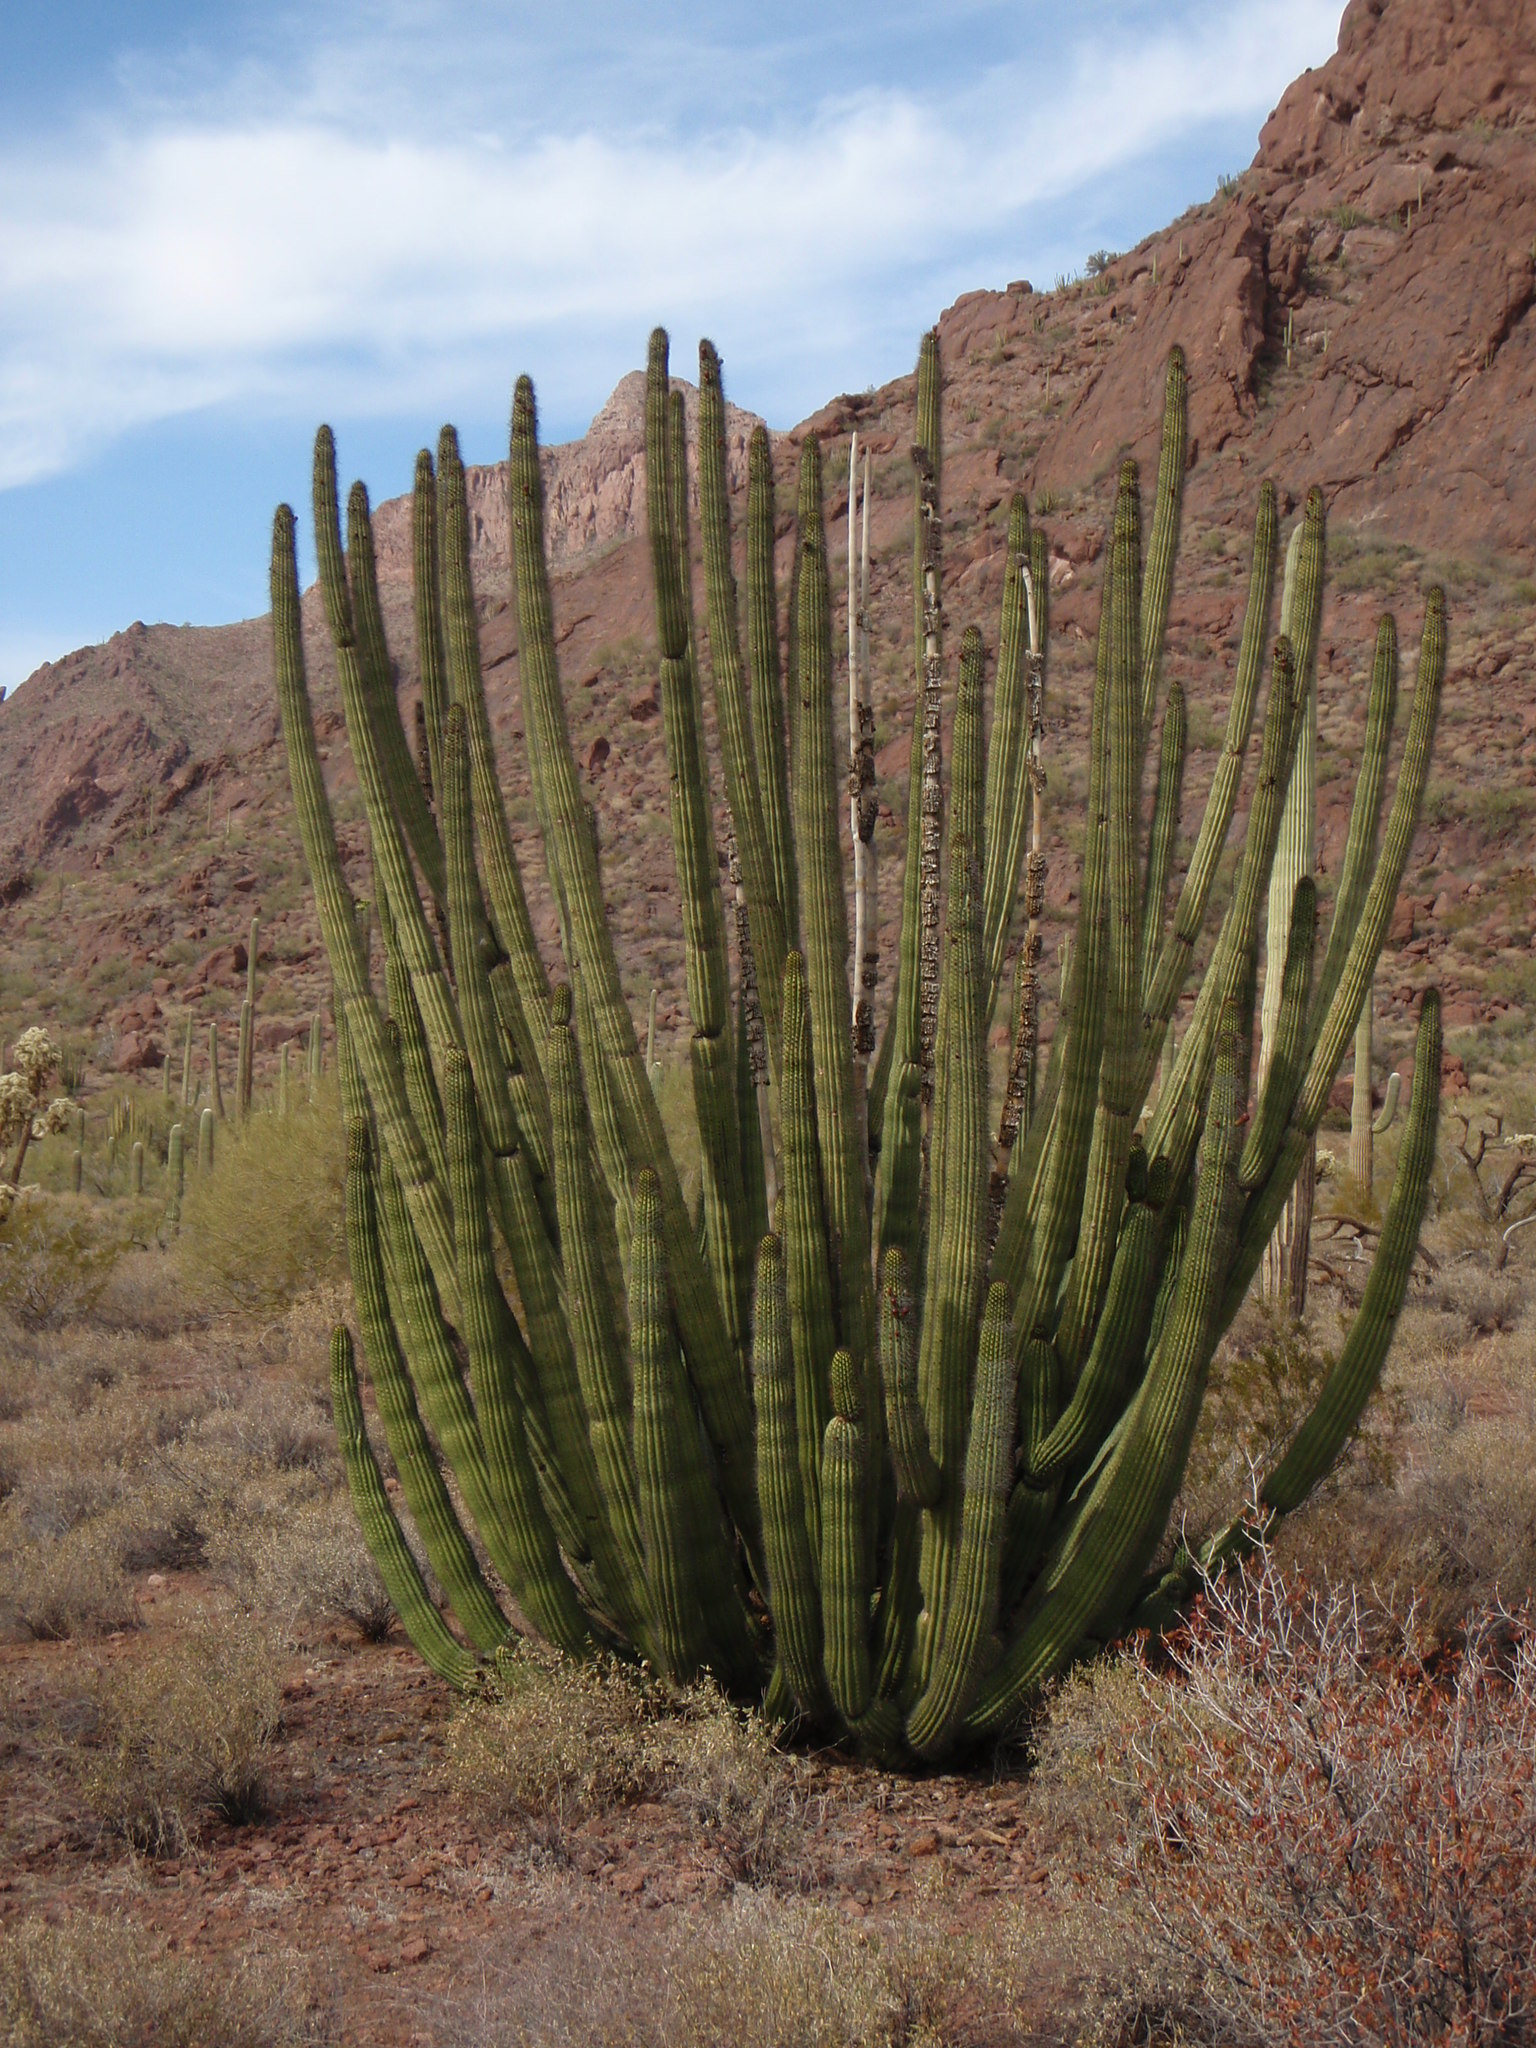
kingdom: Plantae
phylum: Tracheophyta
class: Magnoliopsida
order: Caryophyllales
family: Cactaceae
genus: Stenocereus
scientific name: Stenocereus thurberi
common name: Organ pipe cactus
